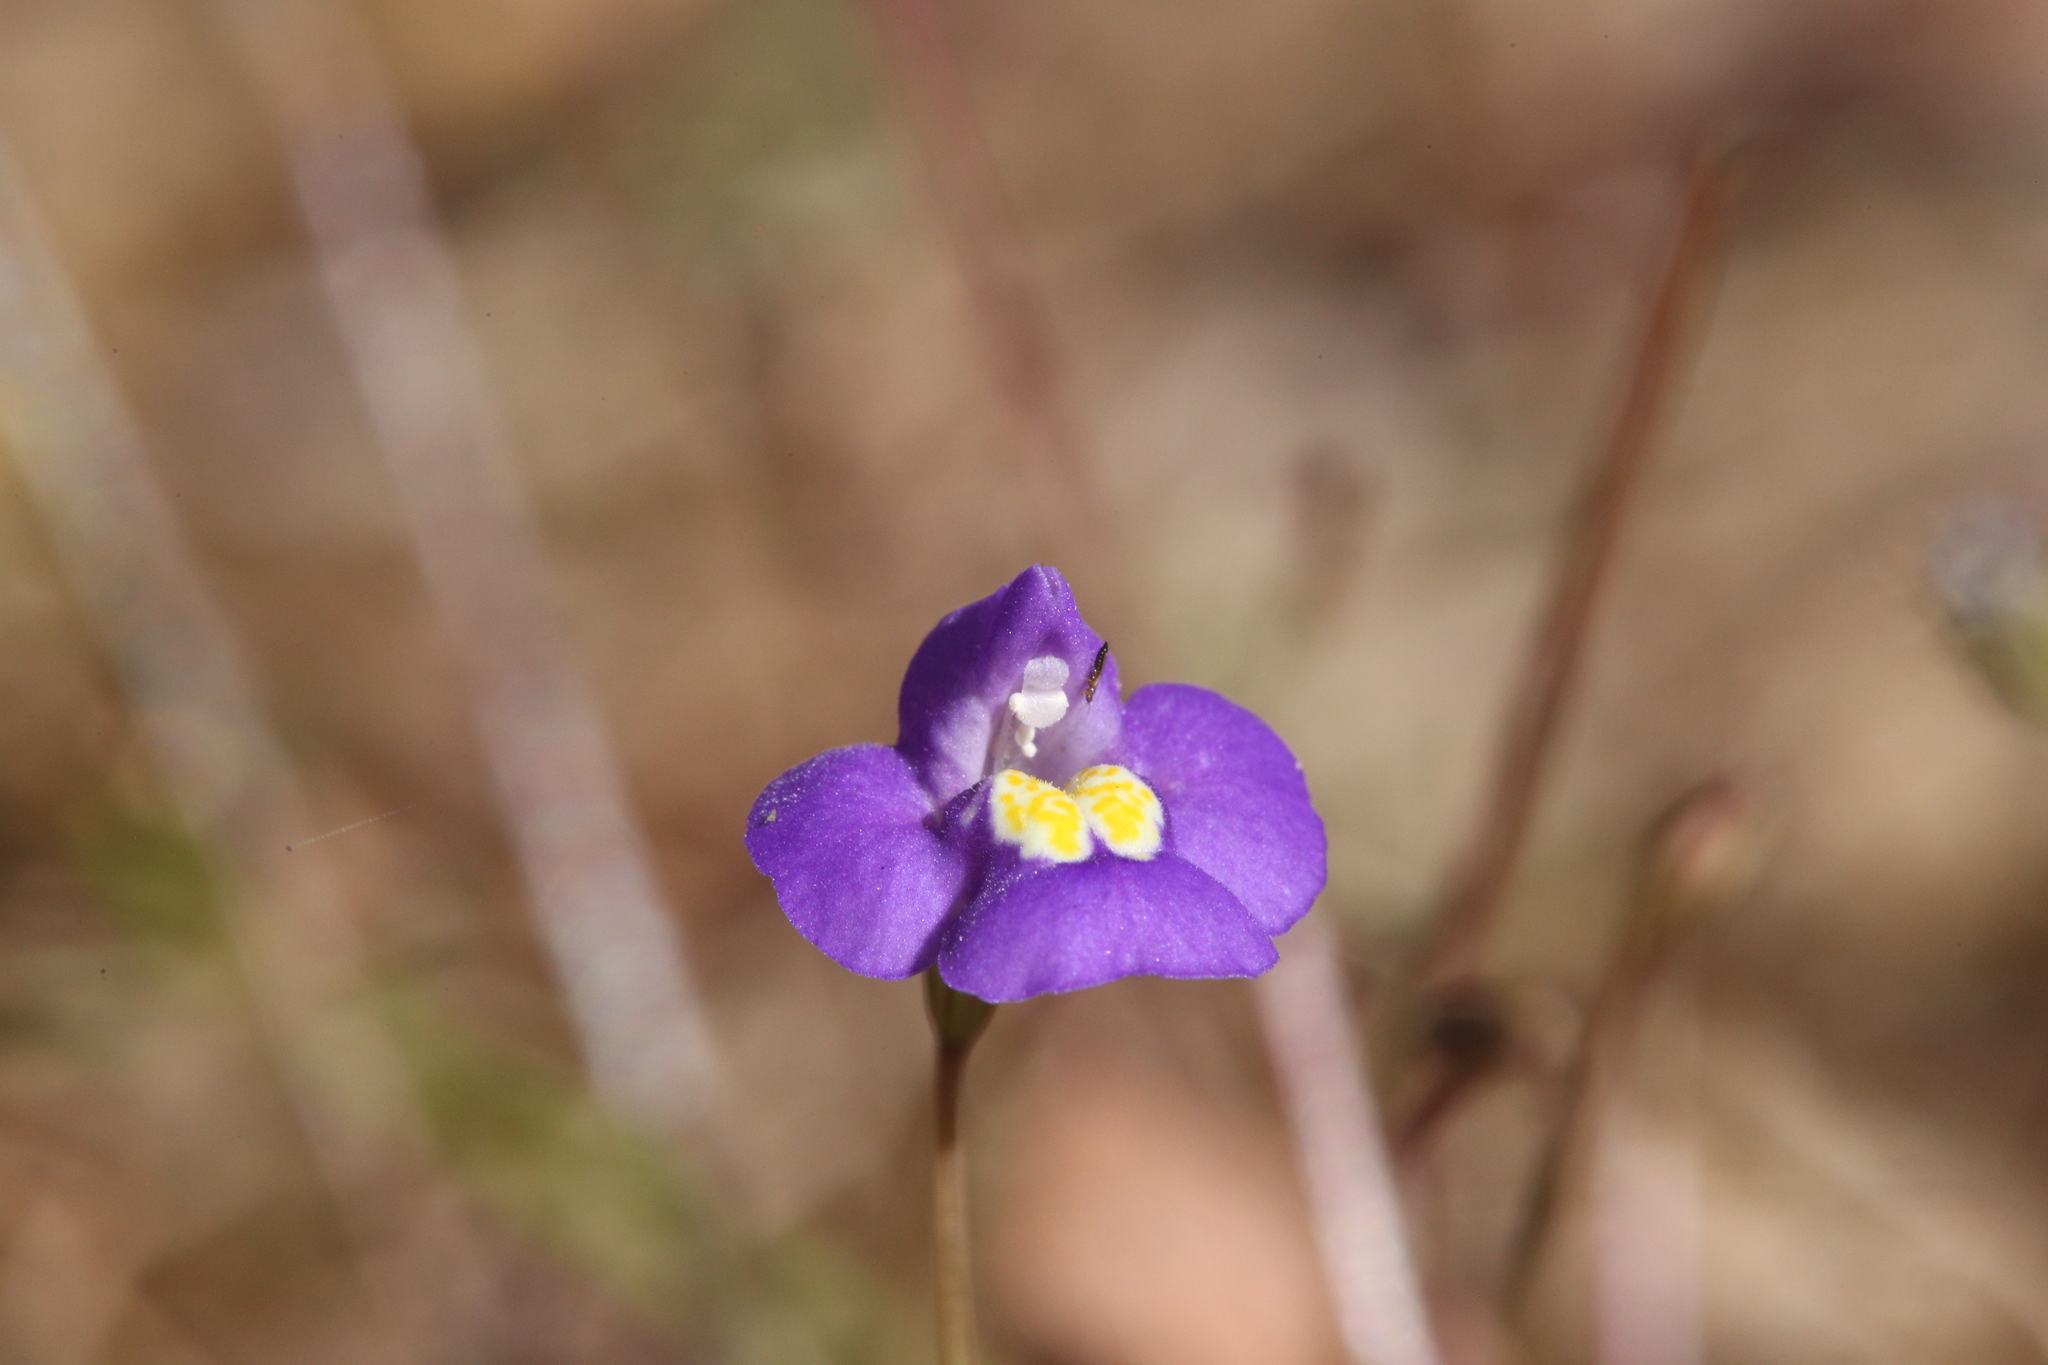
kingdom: Plantae
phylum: Tracheophyta
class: Magnoliopsida
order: Lamiales
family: Phrymaceae
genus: Uvedalia
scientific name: Uvedalia linearis
